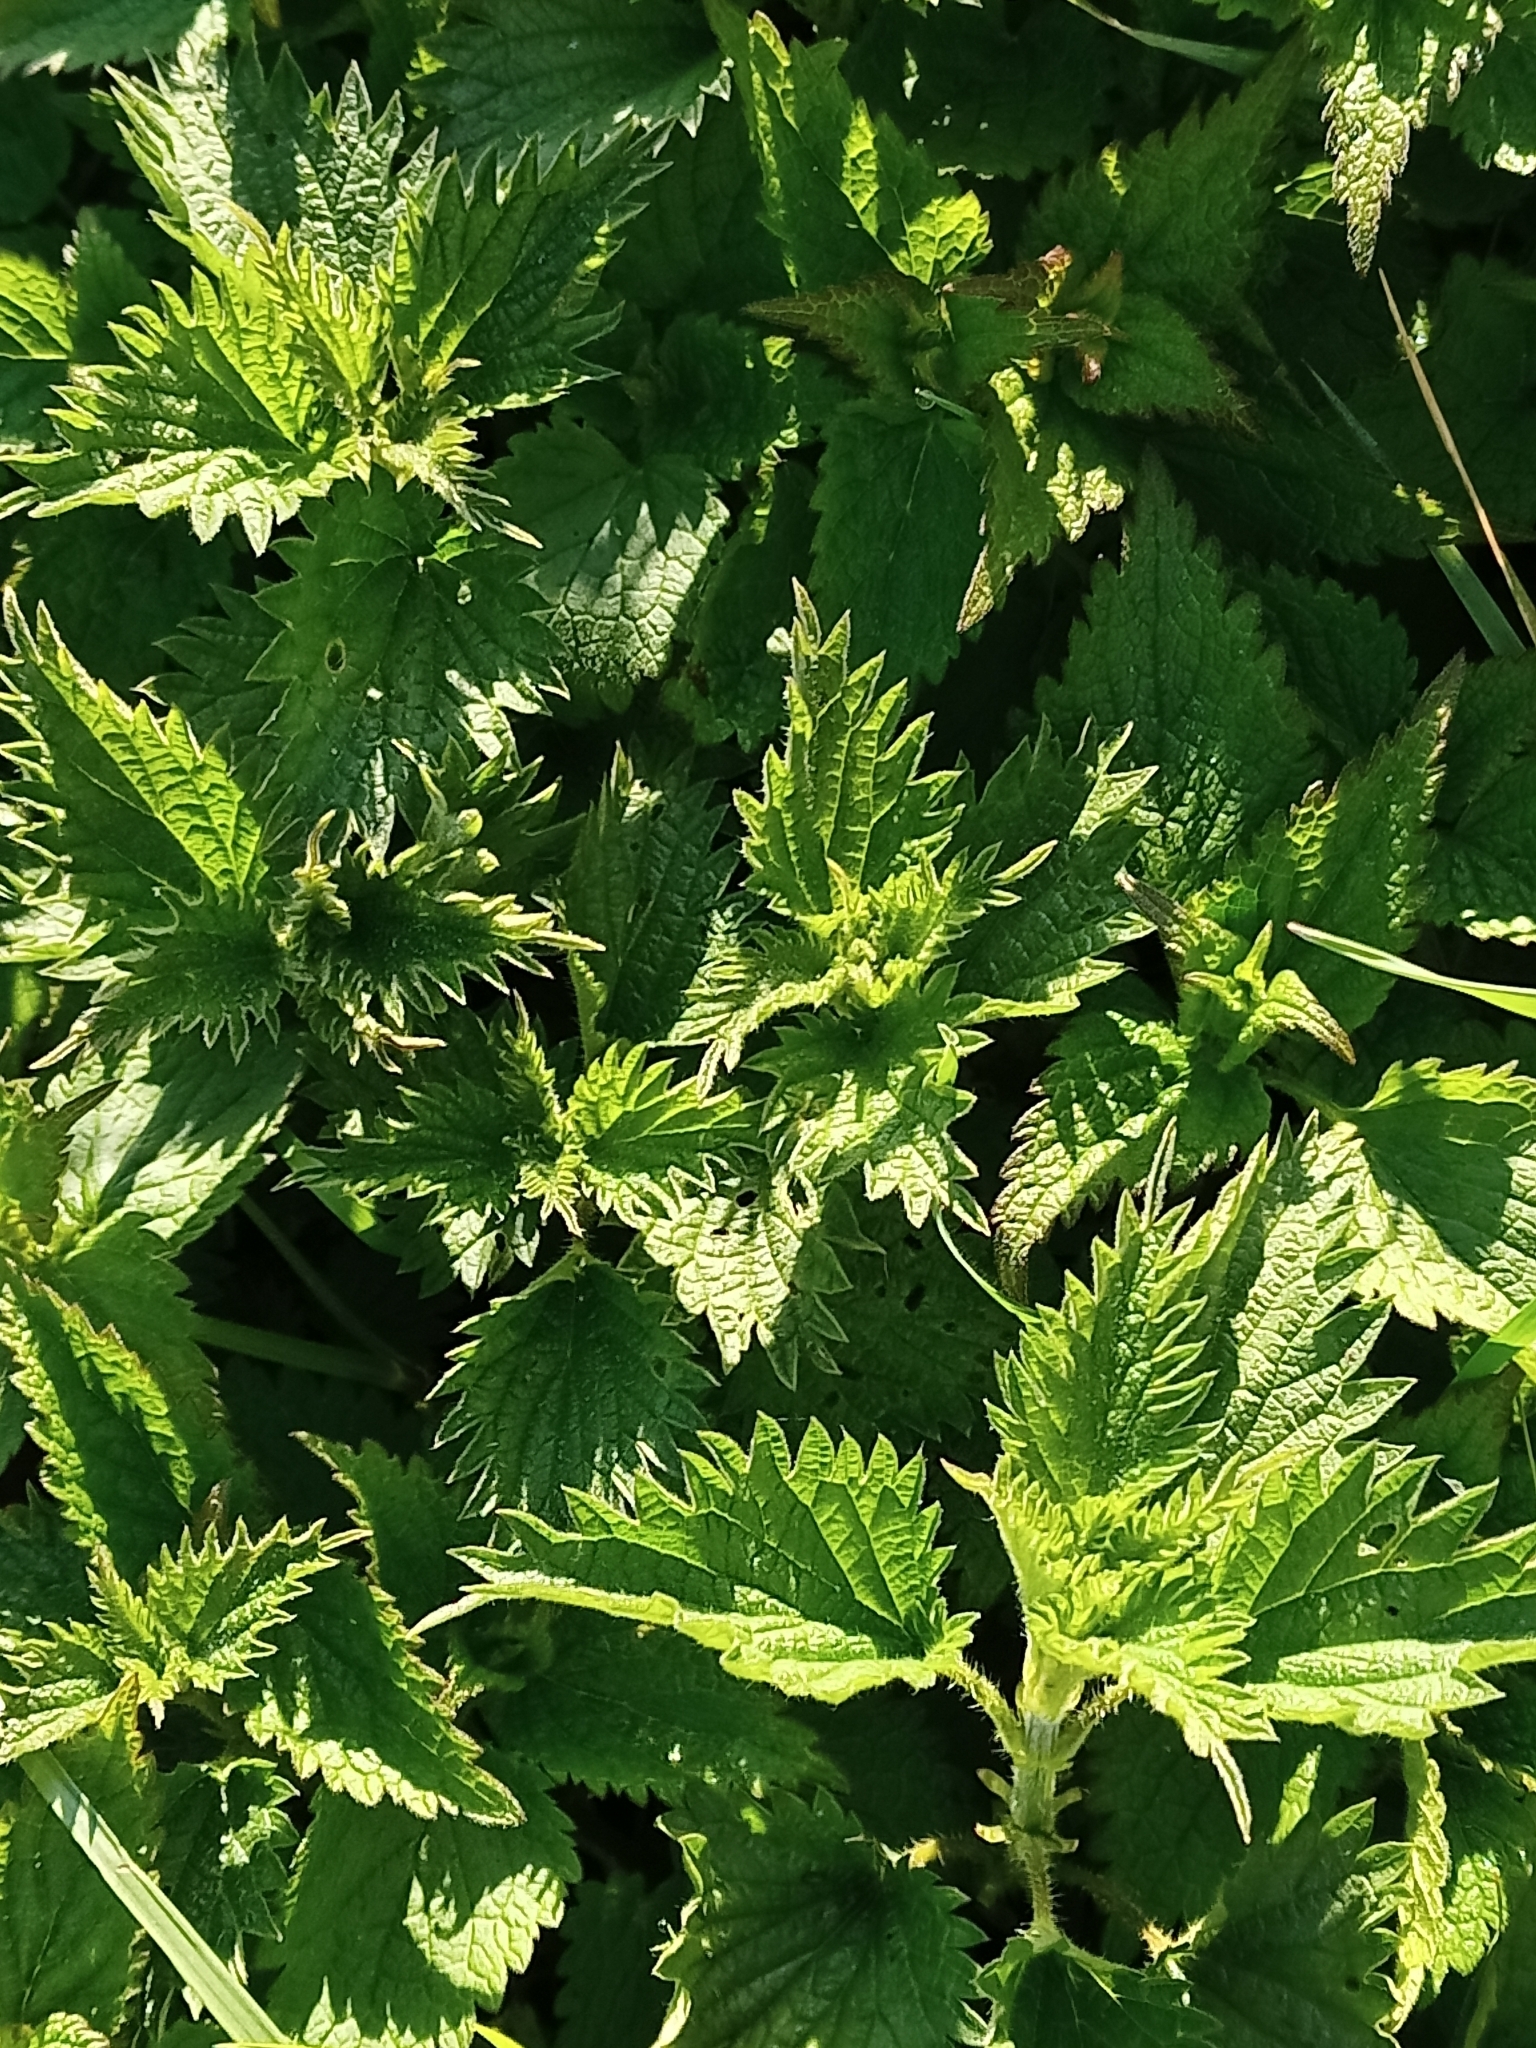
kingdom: Plantae
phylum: Tracheophyta
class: Magnoliopsida
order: Rosales
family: Urticaceae
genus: Urtica
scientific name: Urtica dioica
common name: Common nettle
